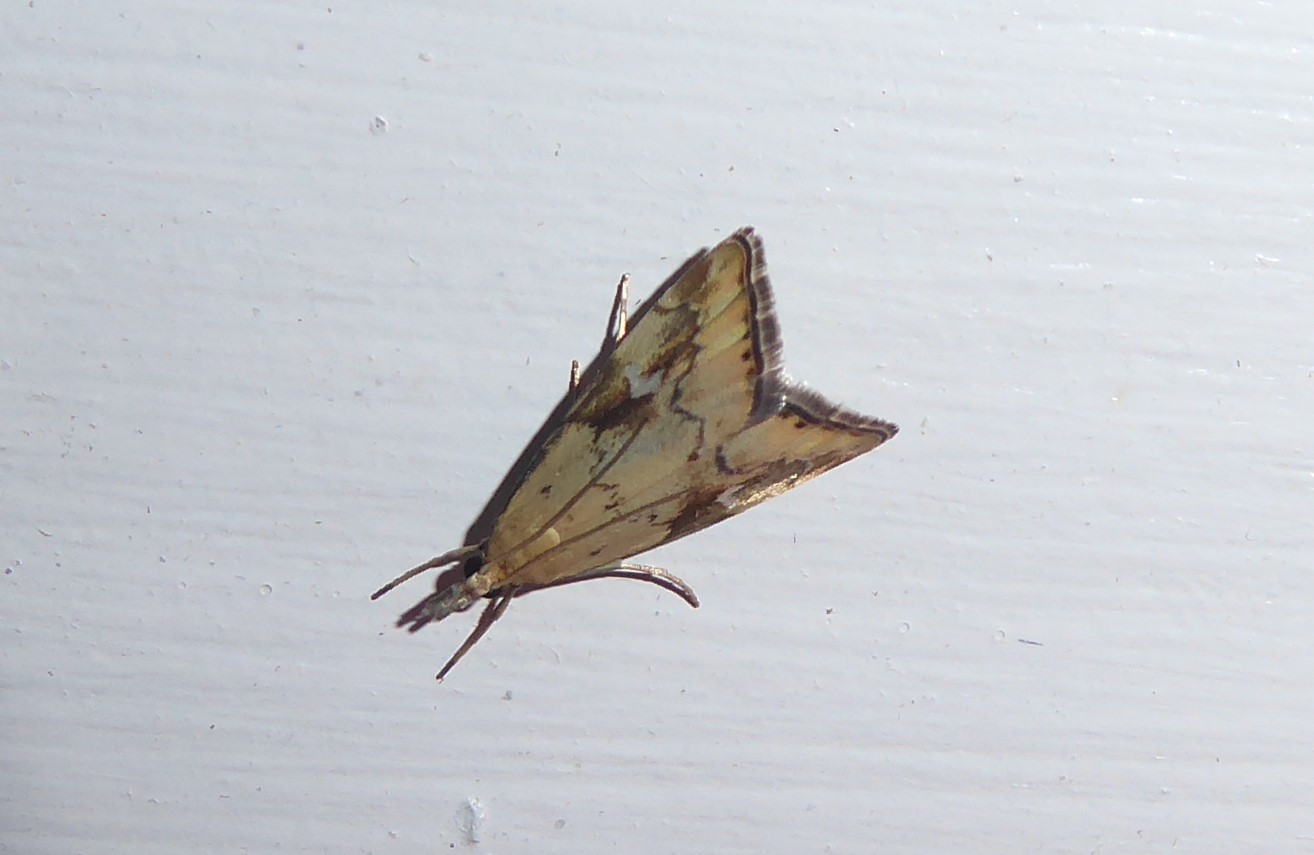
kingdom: Animalia
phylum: Arthropoda
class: Insecta
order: Lepidoptera
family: Crambidae
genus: Glaucocharis
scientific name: Glaucocharis lepidella
